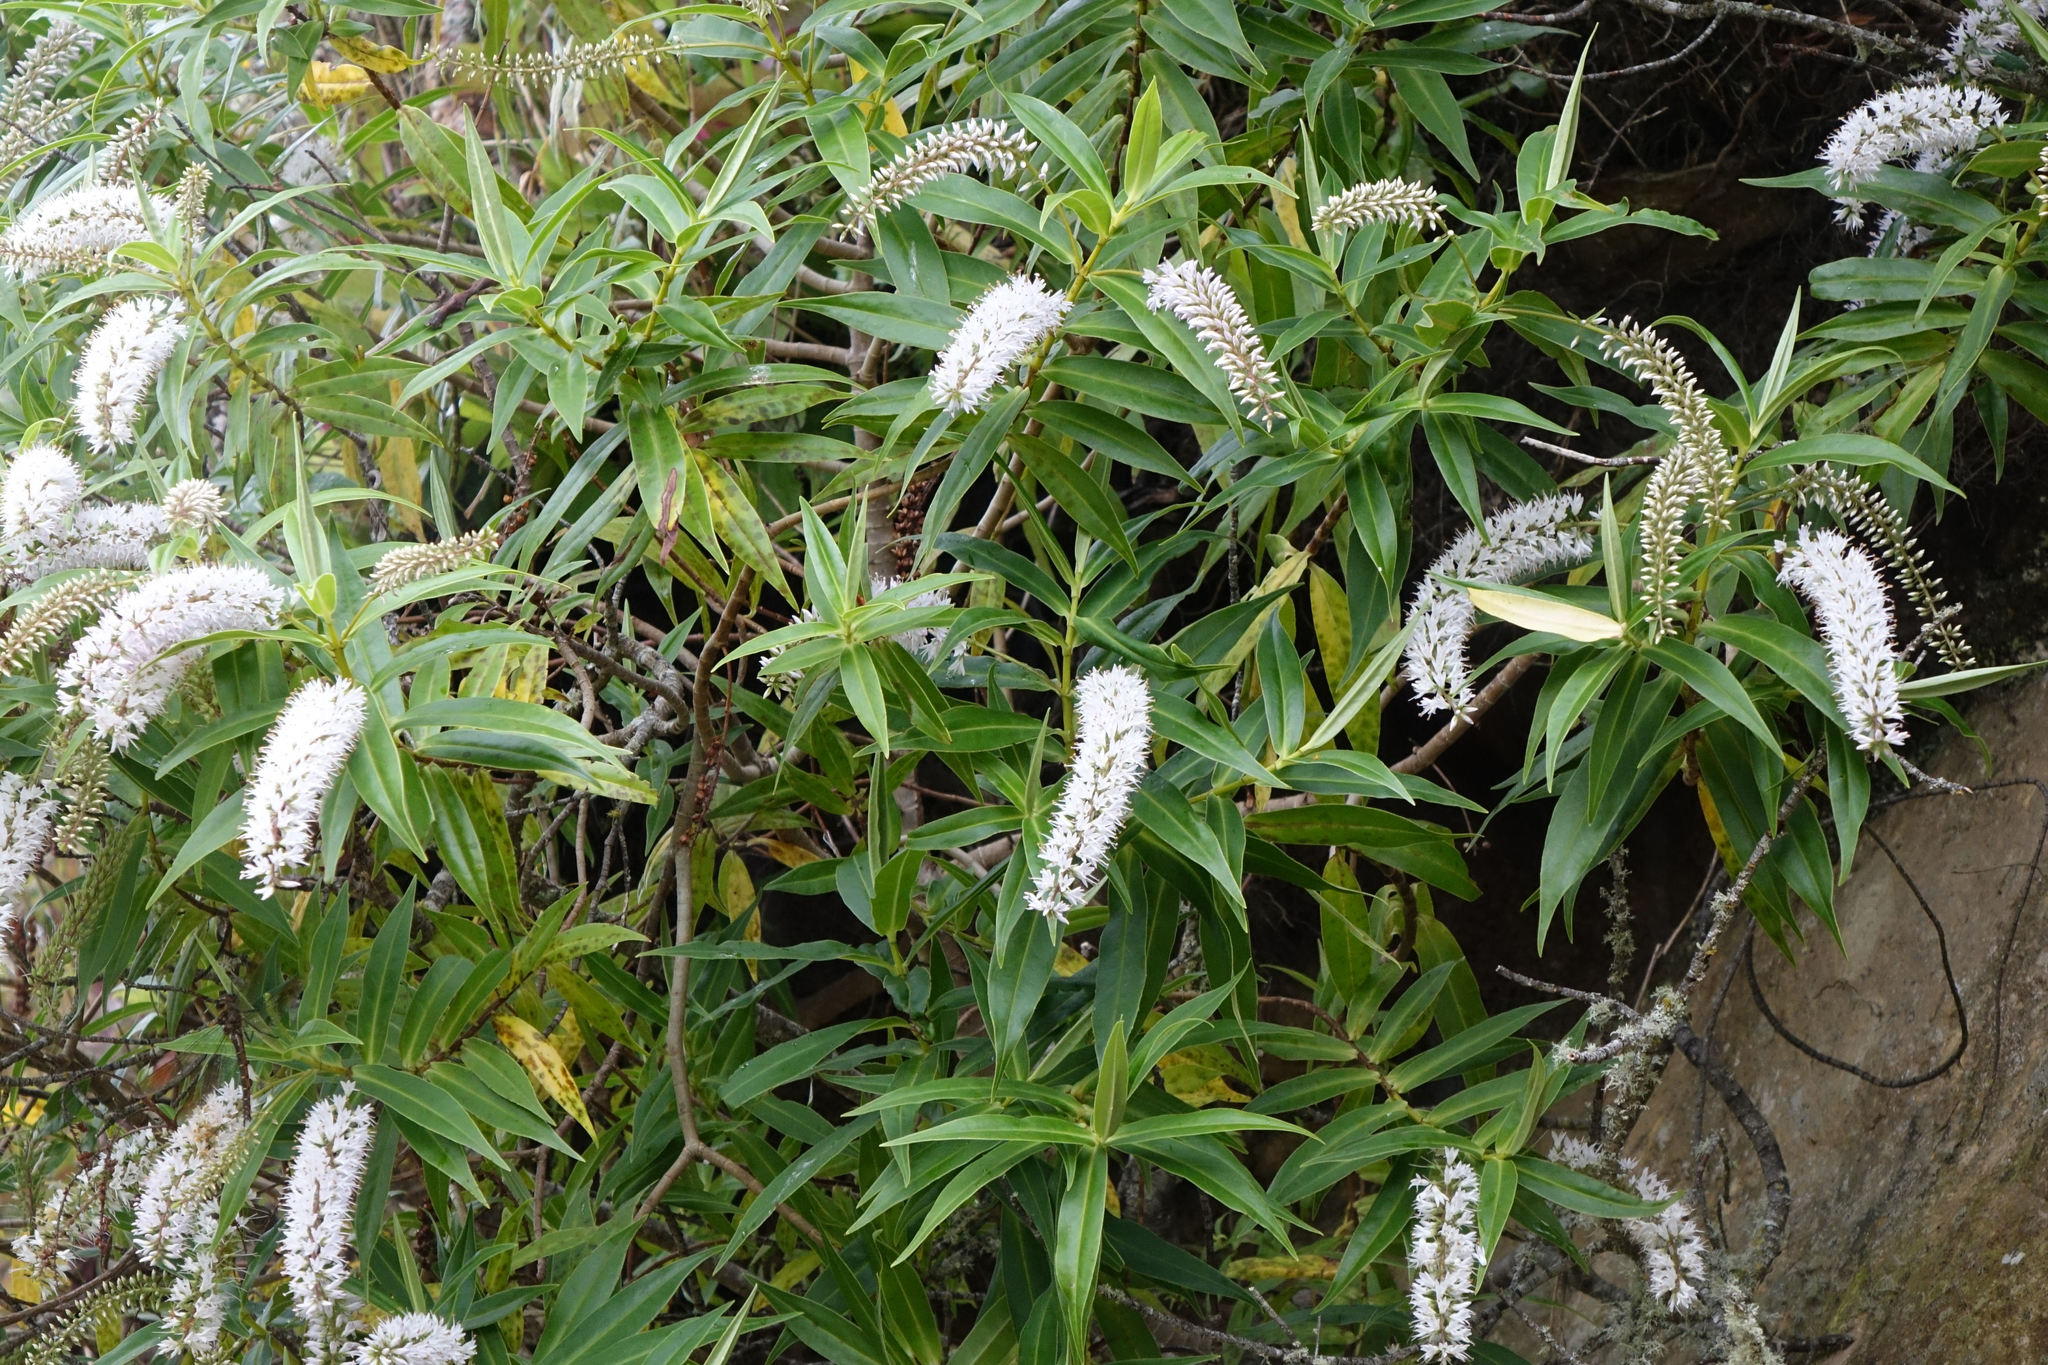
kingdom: Plantae
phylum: Tracheophyta
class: Magnoliopsida
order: Lamiales
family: Plantaginaceae
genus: Veronica
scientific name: Veronica salicifolia
